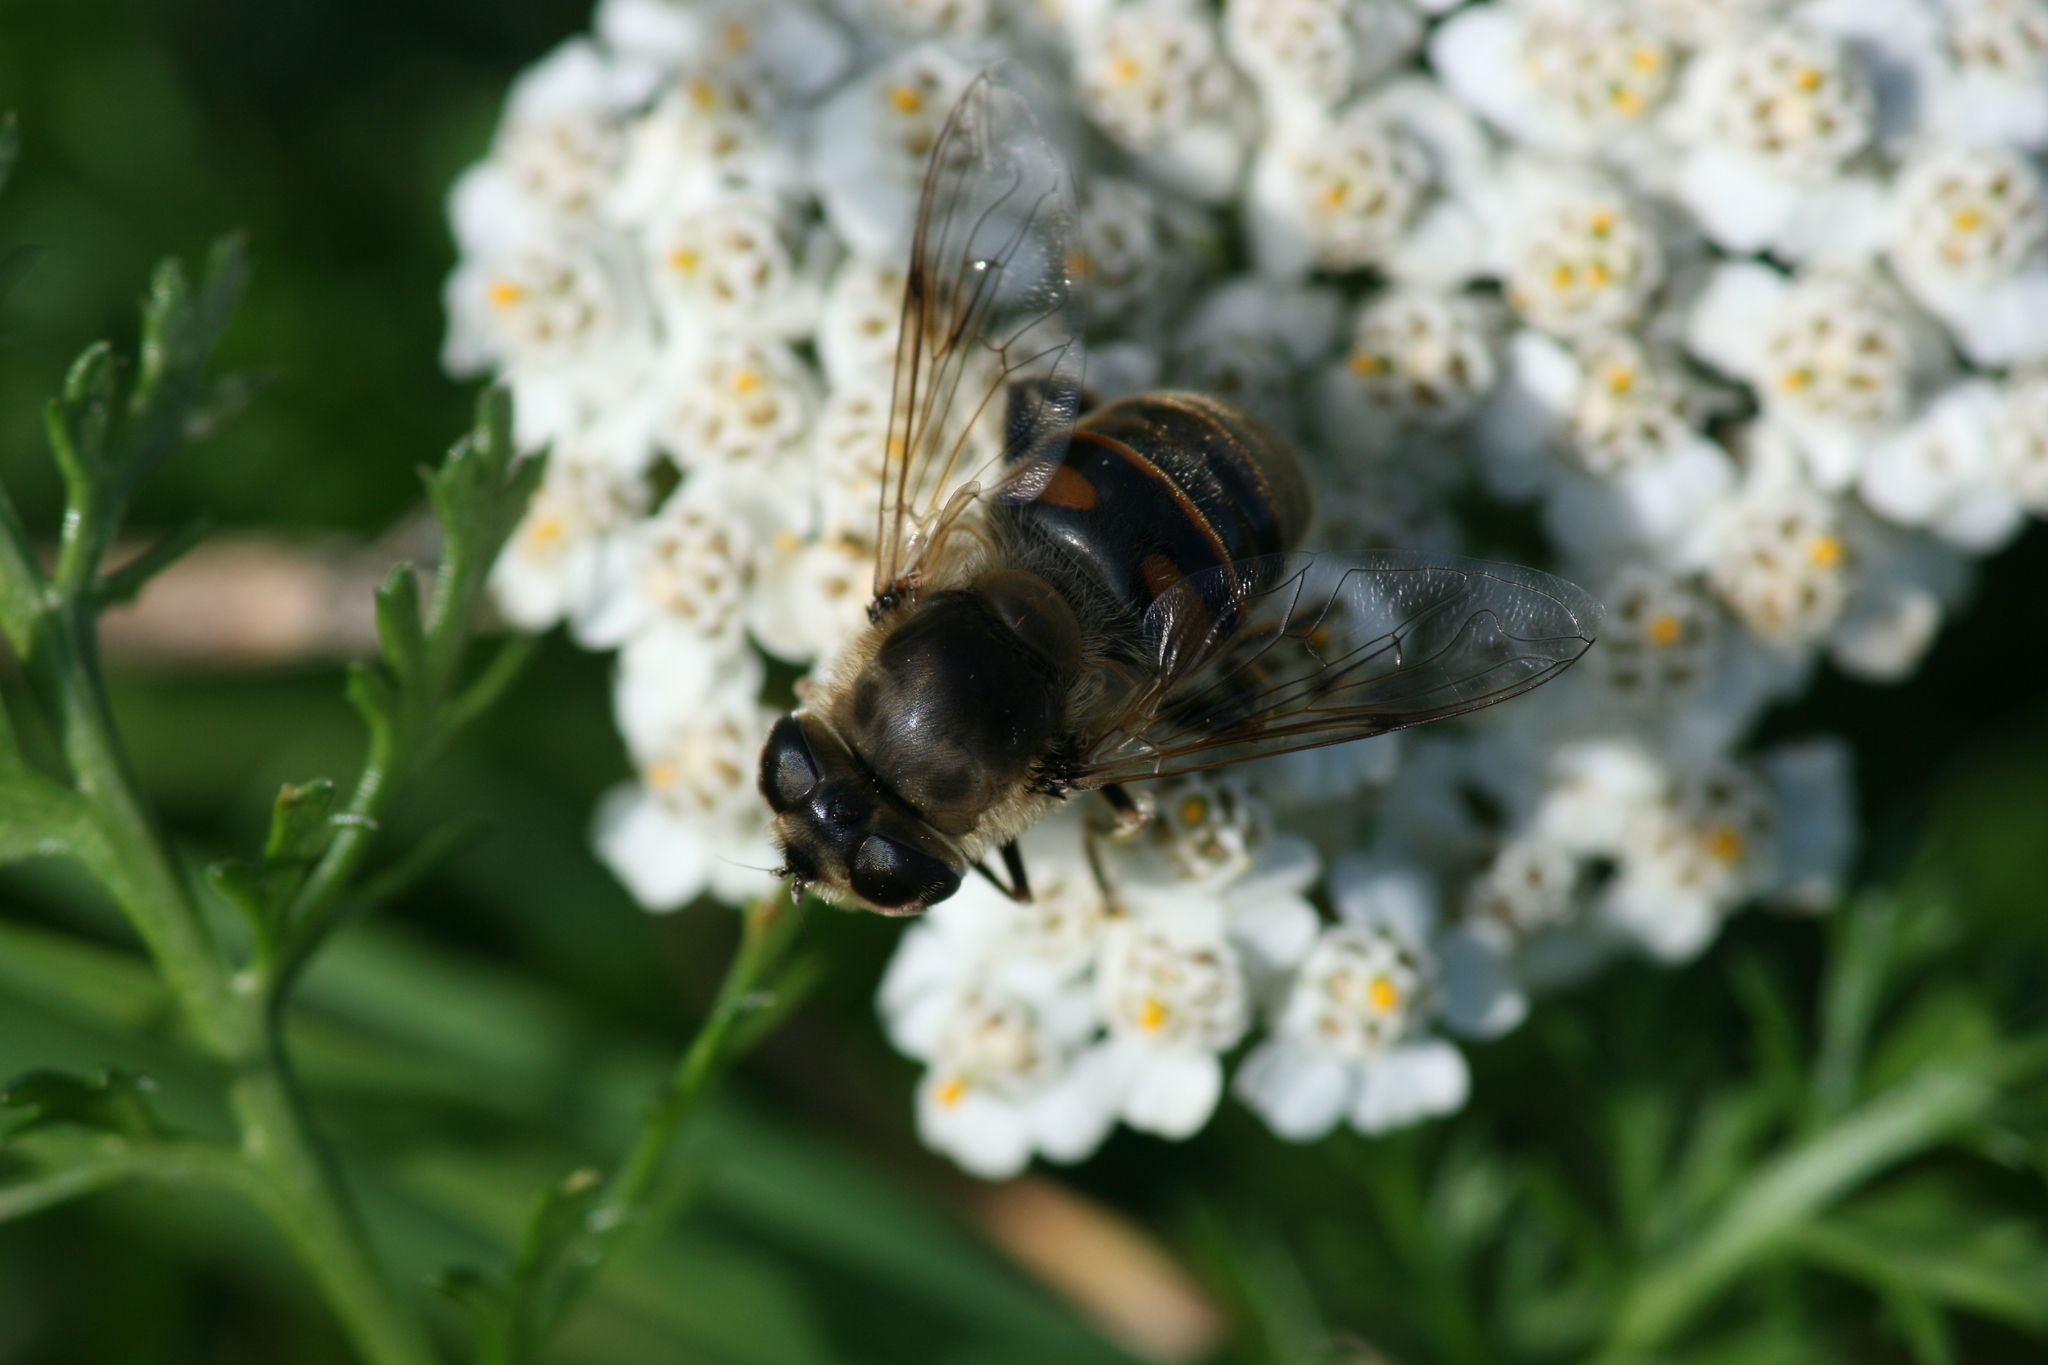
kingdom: Animalia
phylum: Arthropoda
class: Insecta
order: Diptera
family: Syrphidae
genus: Eristalis
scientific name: Eristalis tenax
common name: Drone fly
